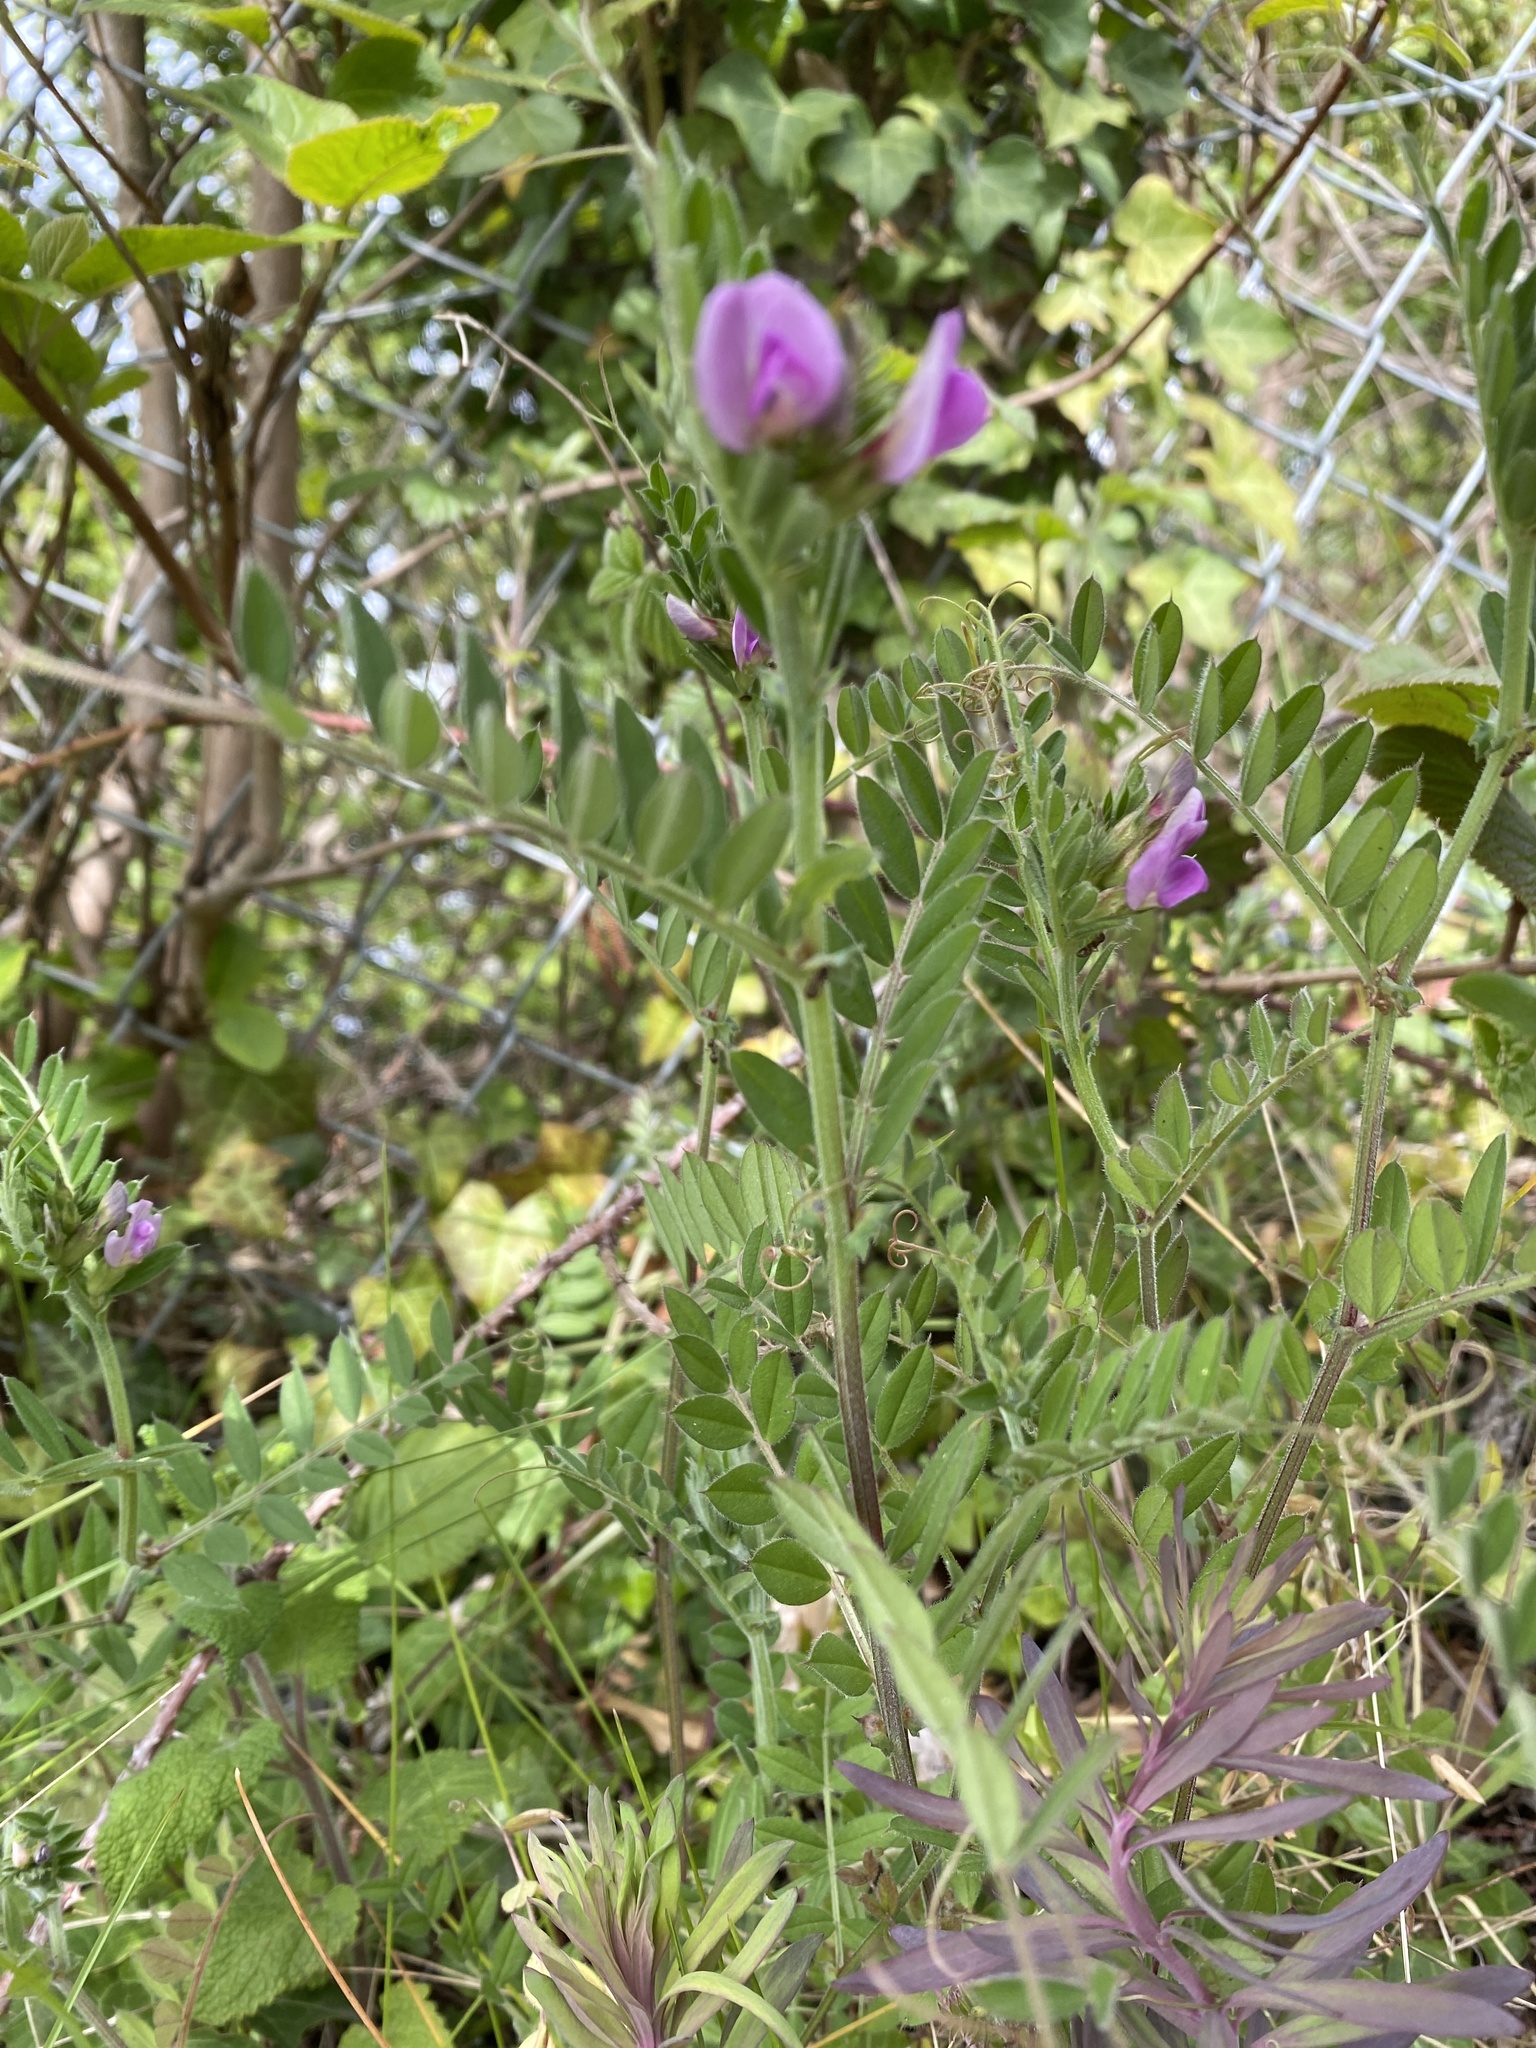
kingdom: Plantae
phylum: Tracheophyta
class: Magnoliopsida
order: Fabales
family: Fabaceae
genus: Vicia
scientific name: Vicia sativa
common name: Garden vetch
